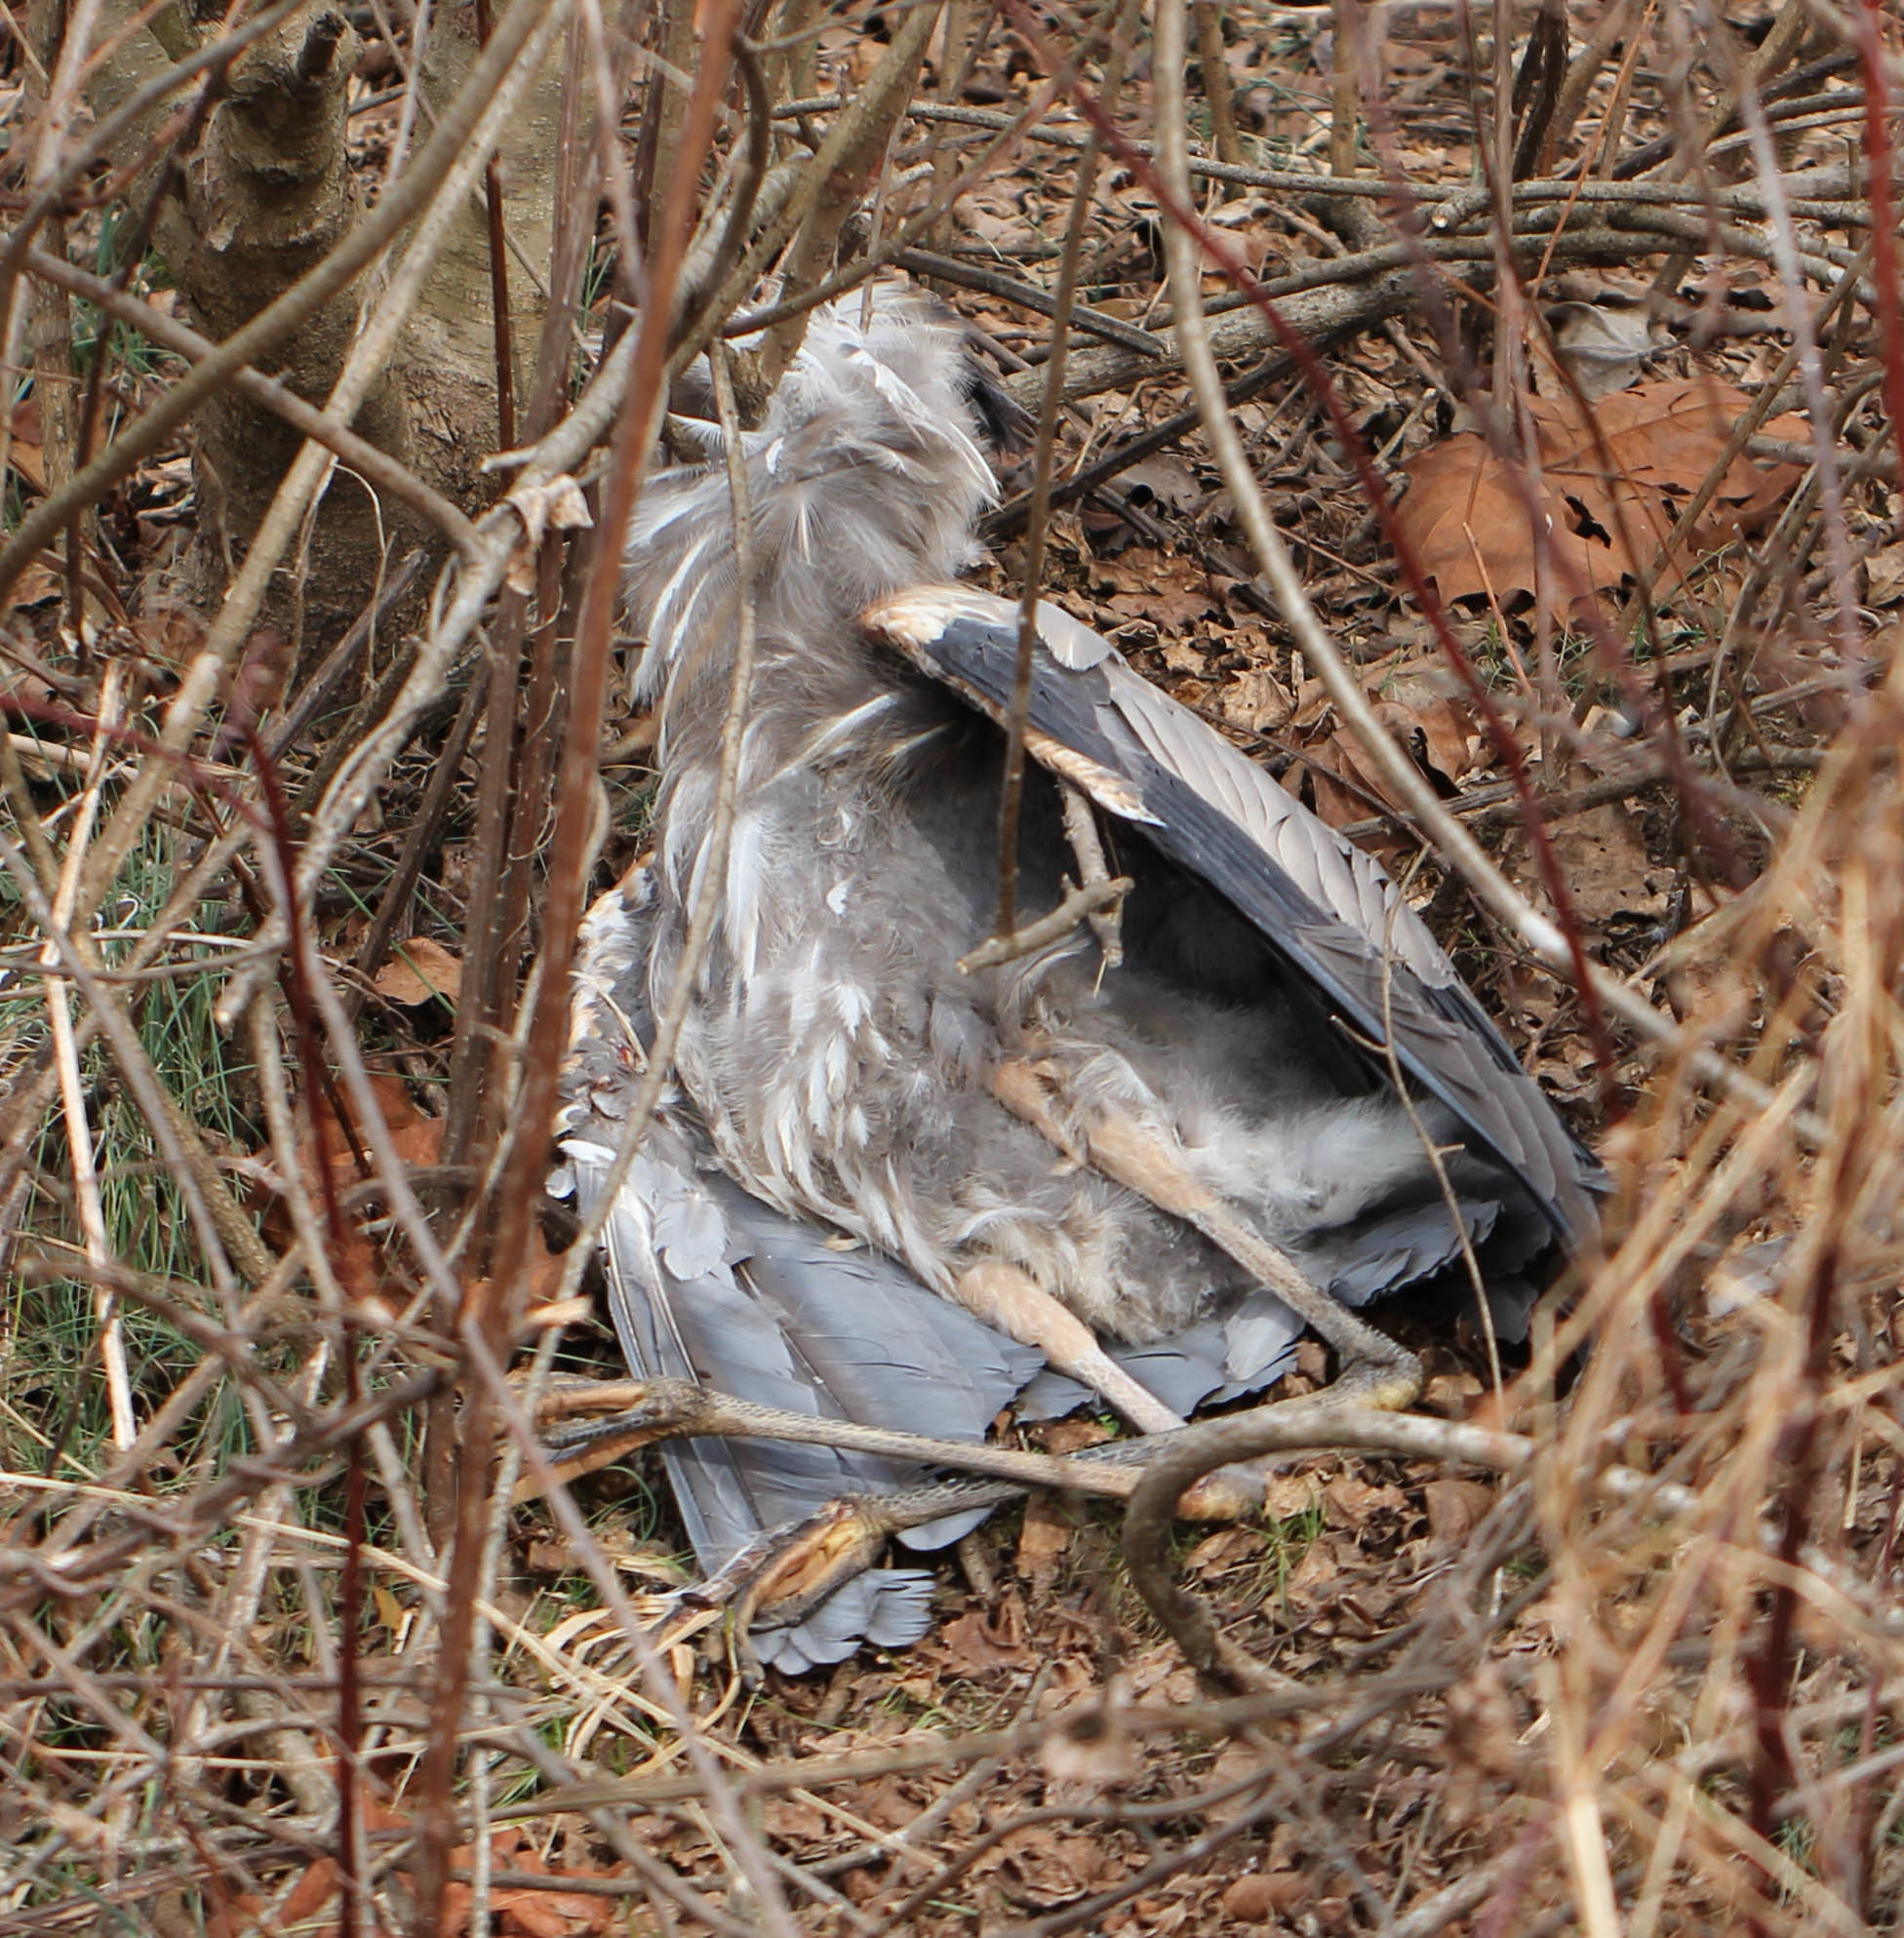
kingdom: Animalia
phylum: Chordata
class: Aves
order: Pelecaniformes
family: Ardeidae
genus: Ardea
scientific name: Ardea herodias
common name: Great blue heron
